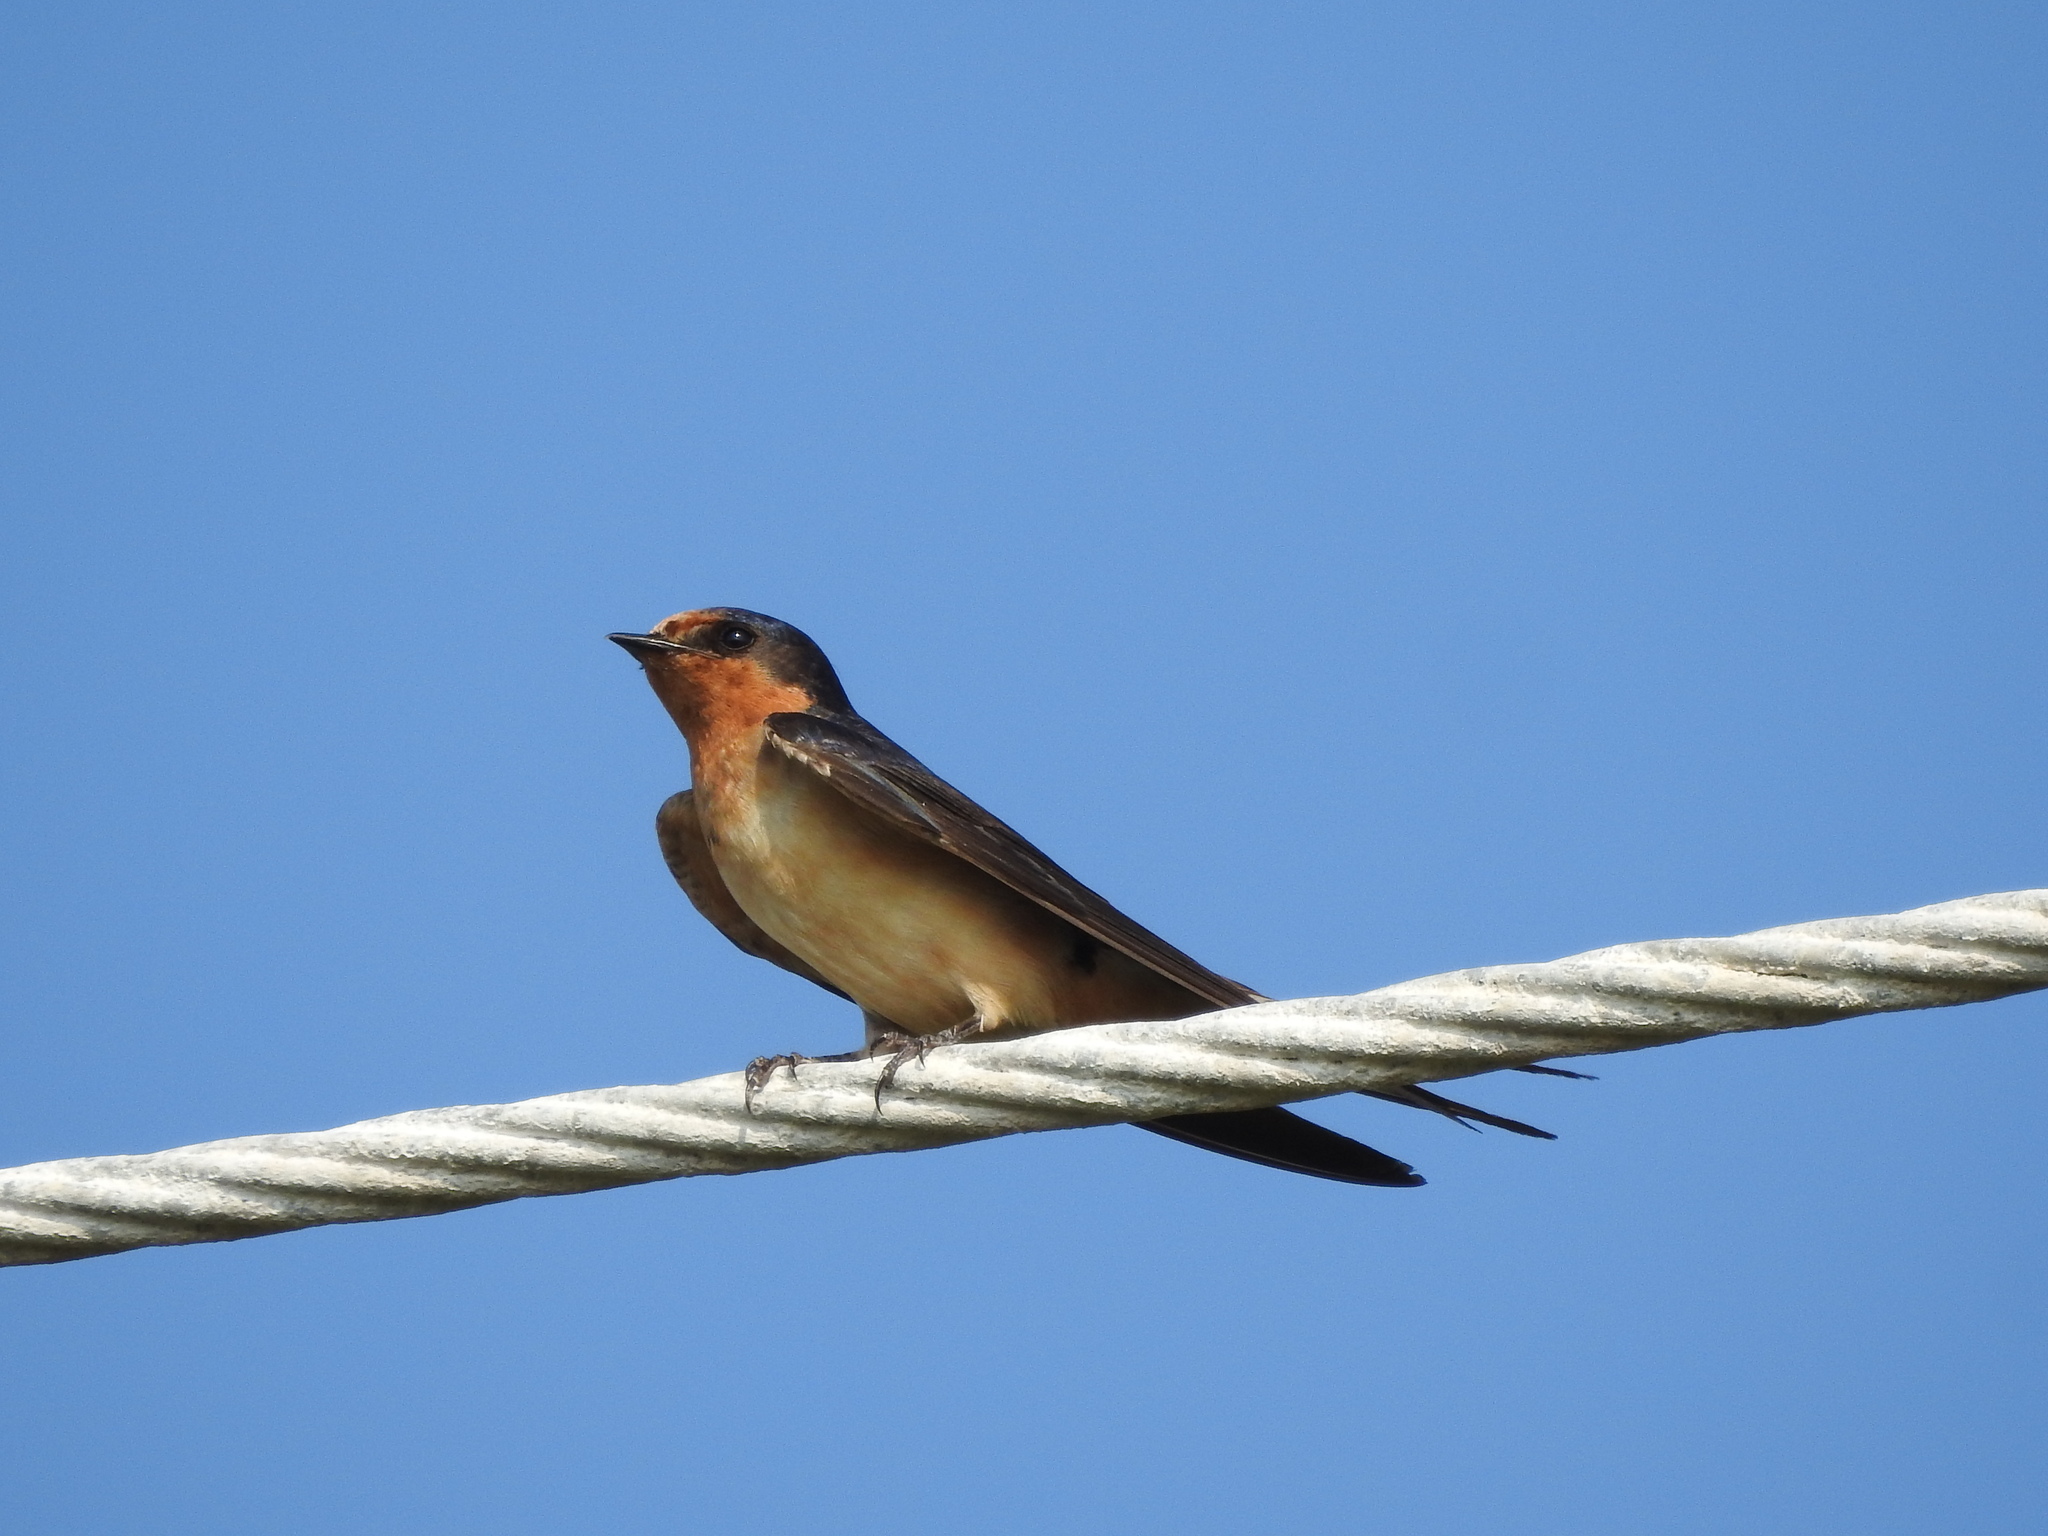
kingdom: Animalia
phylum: Chordata
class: Aves
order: Passeriformes
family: Hirundinidae
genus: Hirundo
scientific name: Hirundo rustica
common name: Barn swallow
